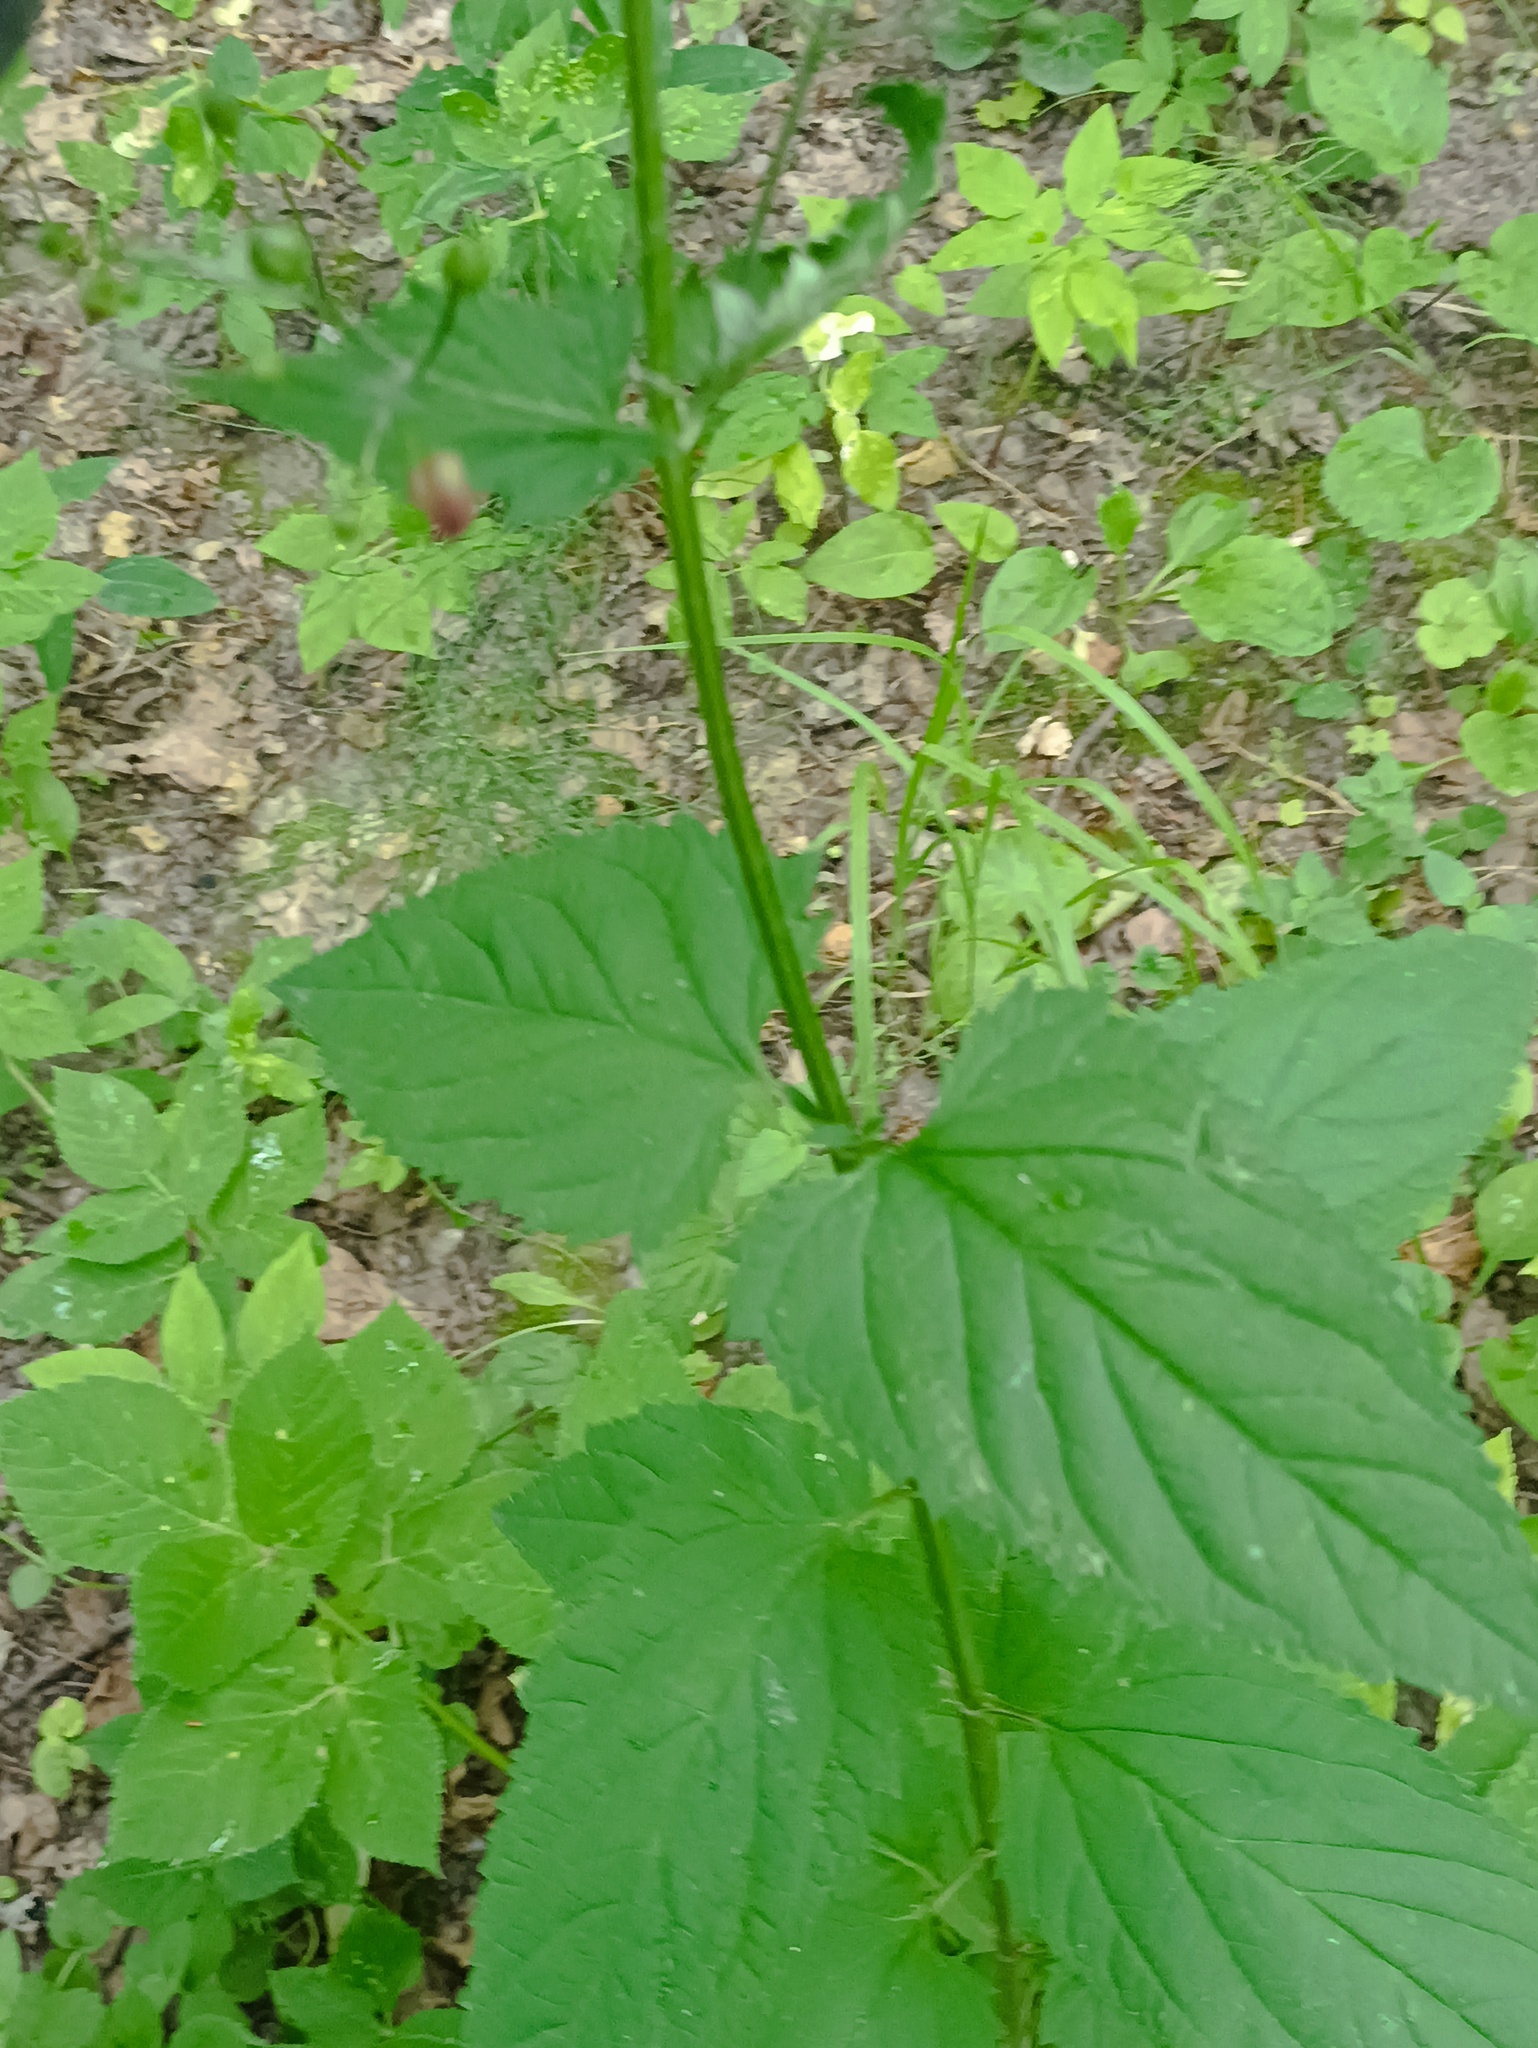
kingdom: Plantae
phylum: Tracheophyta
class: Magnoliopsida
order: Lamiales
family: Scrophulariaceae
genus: Scrophularia
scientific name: Scrophularia nodosa
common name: Common figwort
